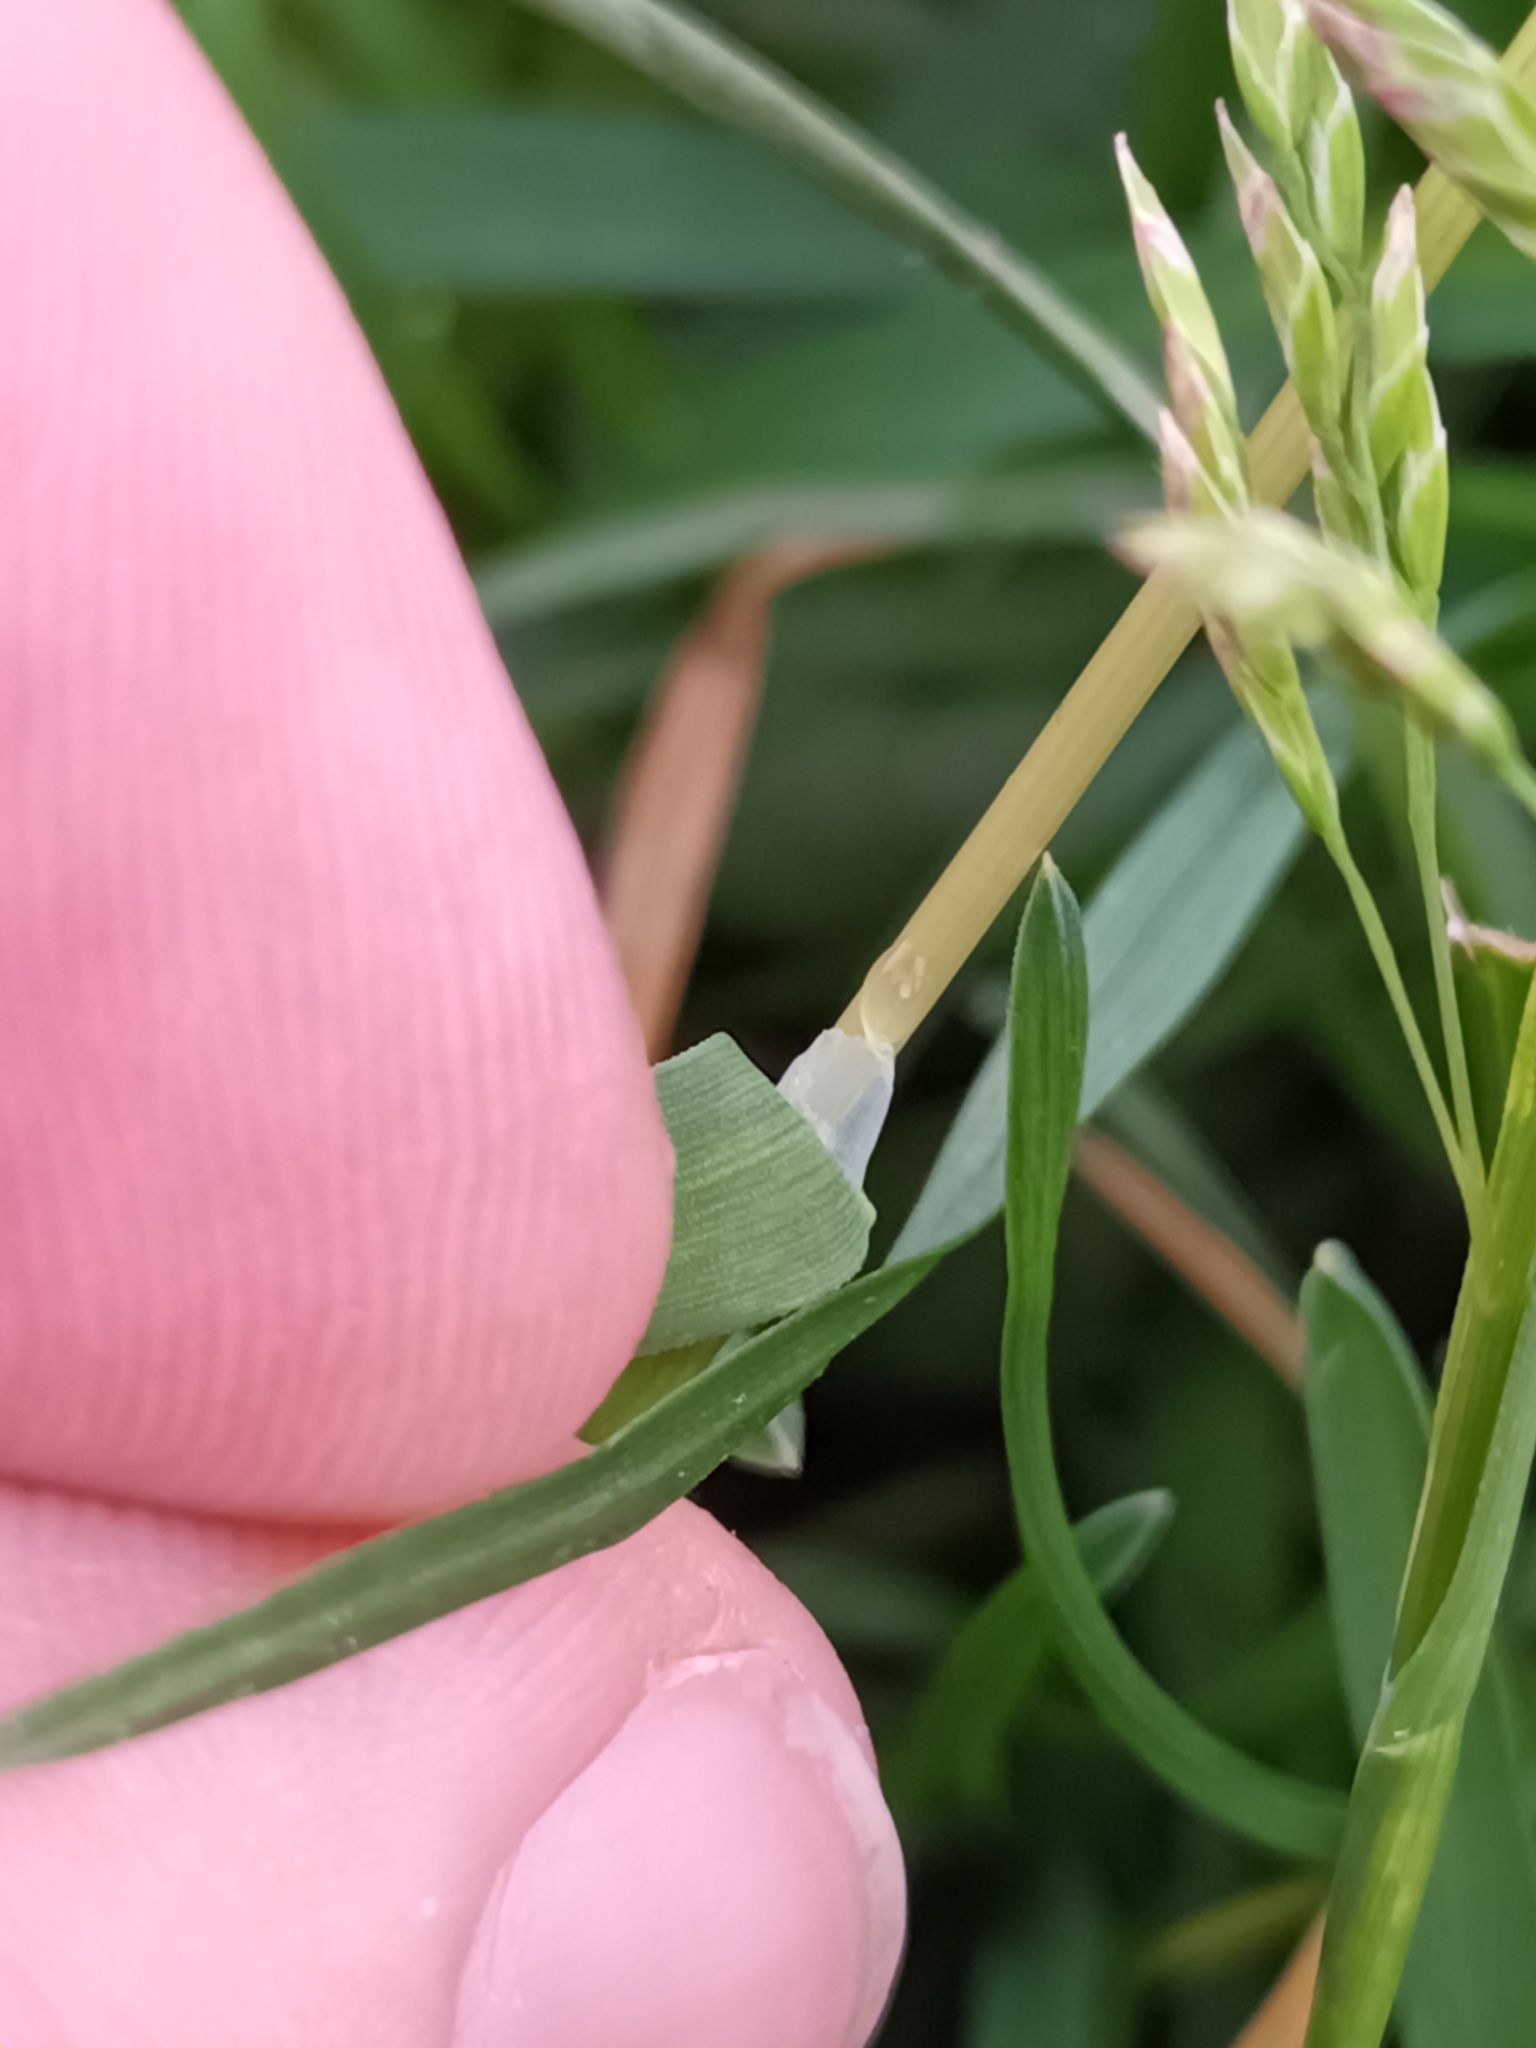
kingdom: Plantae
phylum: Tracheophyta
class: Liliopsida
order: Poales
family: Poaceae
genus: Poa
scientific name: Poa annua
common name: Annual bluegrass
